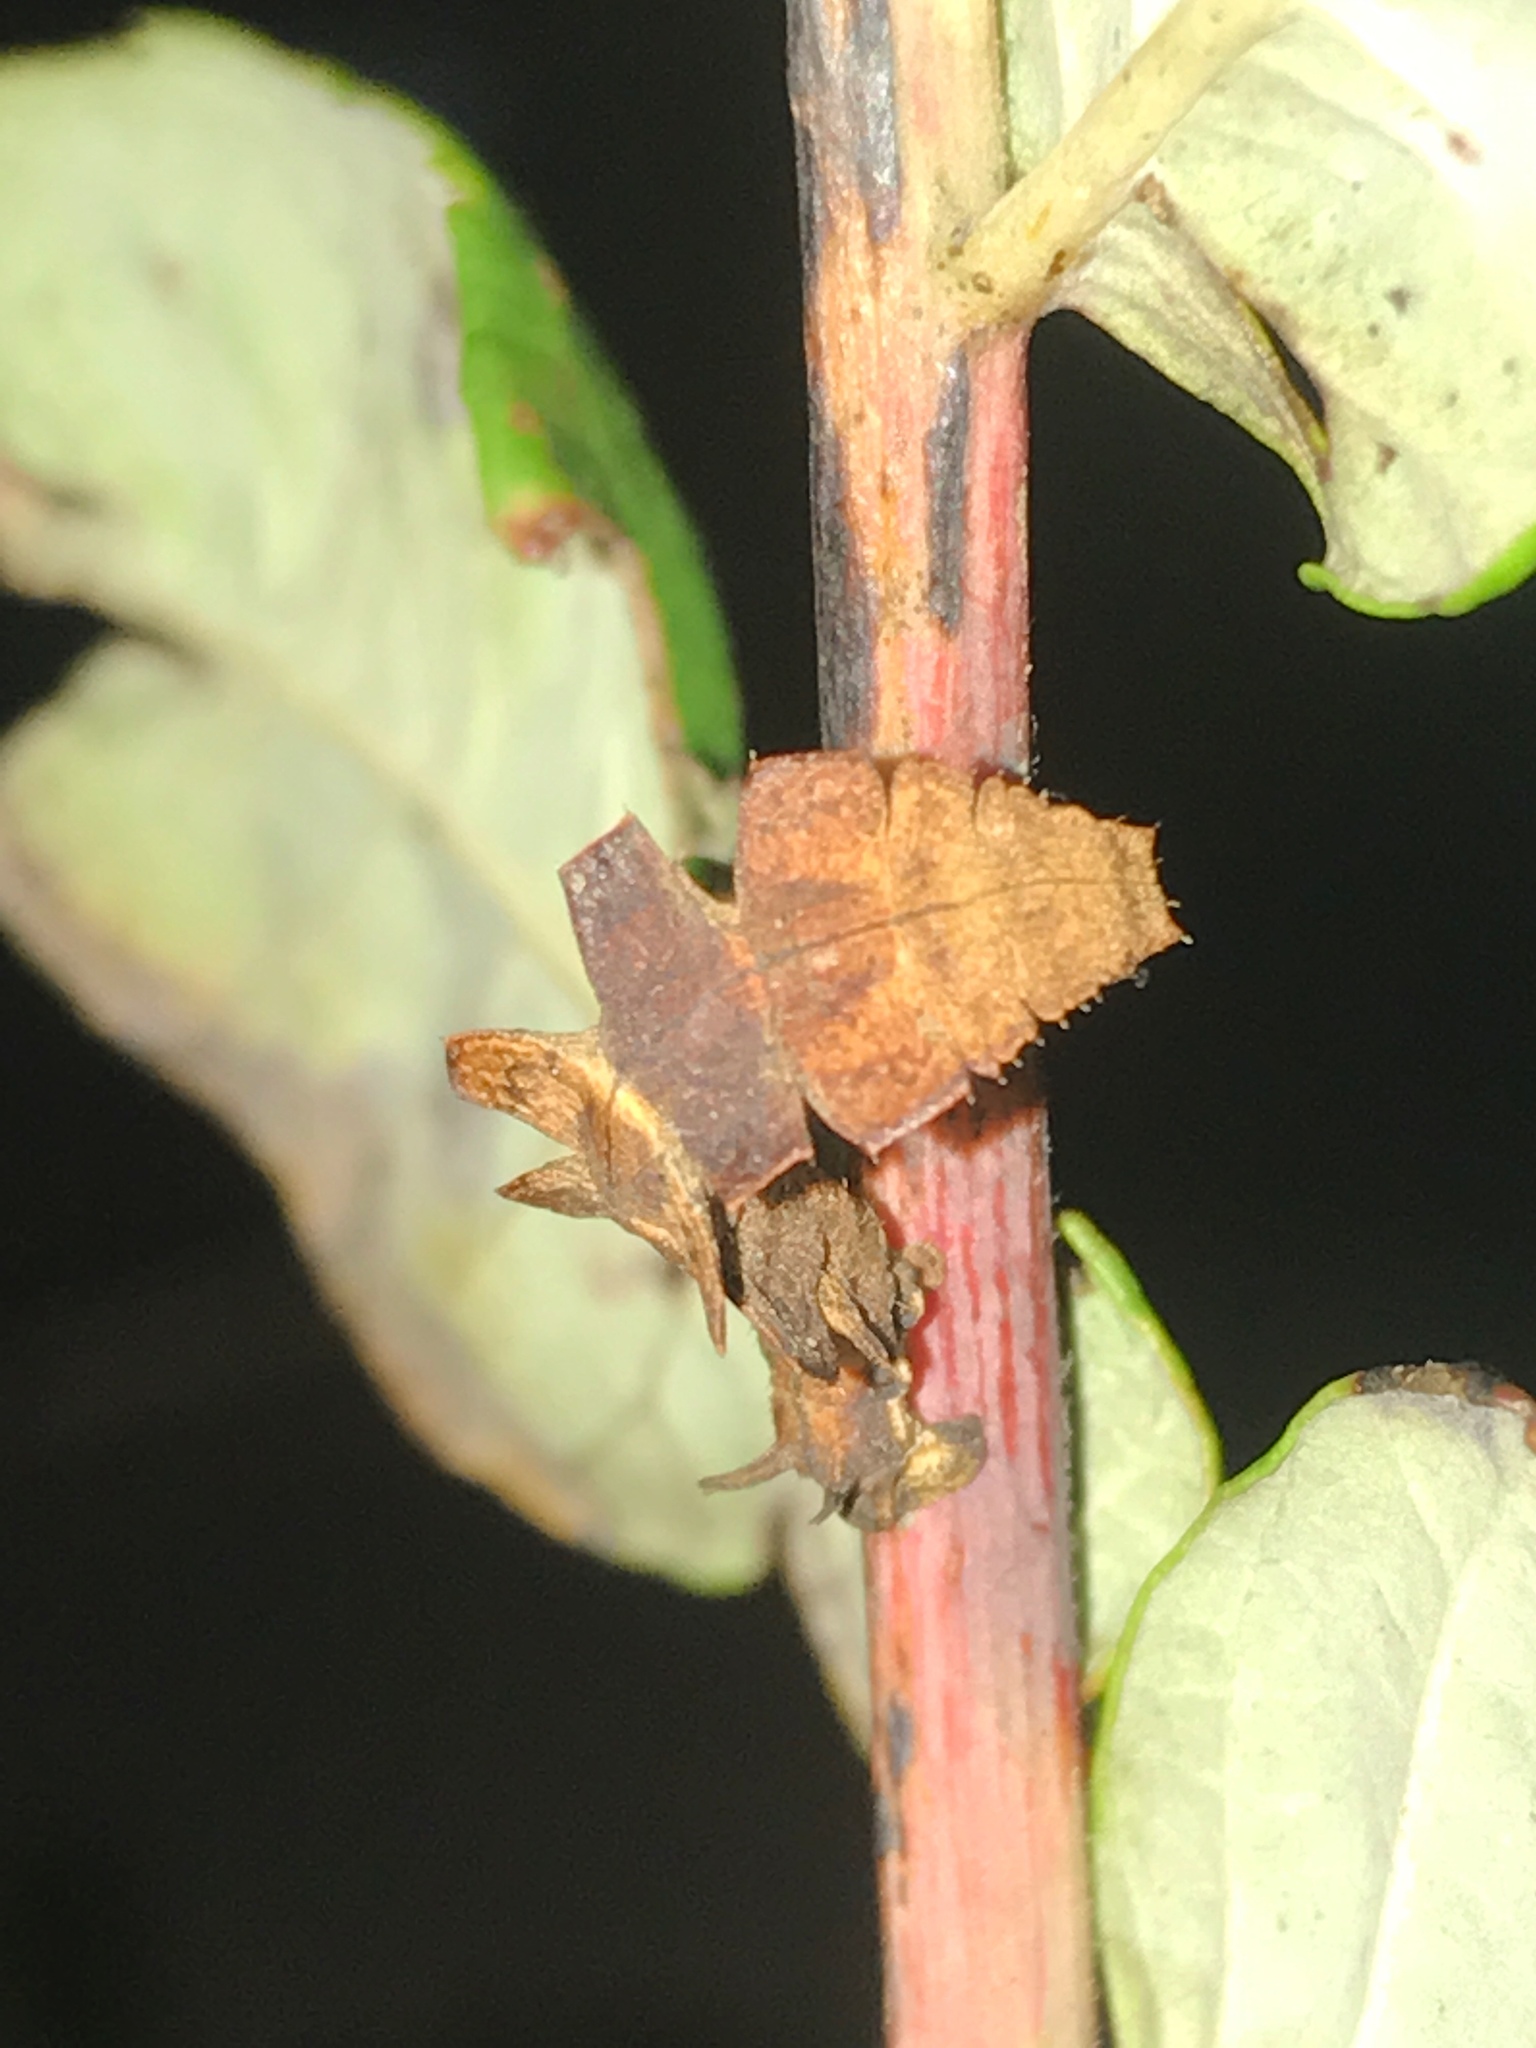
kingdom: Animalia
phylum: Arthropoda
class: Insecta
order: Lepidoptera
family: Geometridae
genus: Dichorda
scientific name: Dichorda iridaria
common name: Showy emerald
